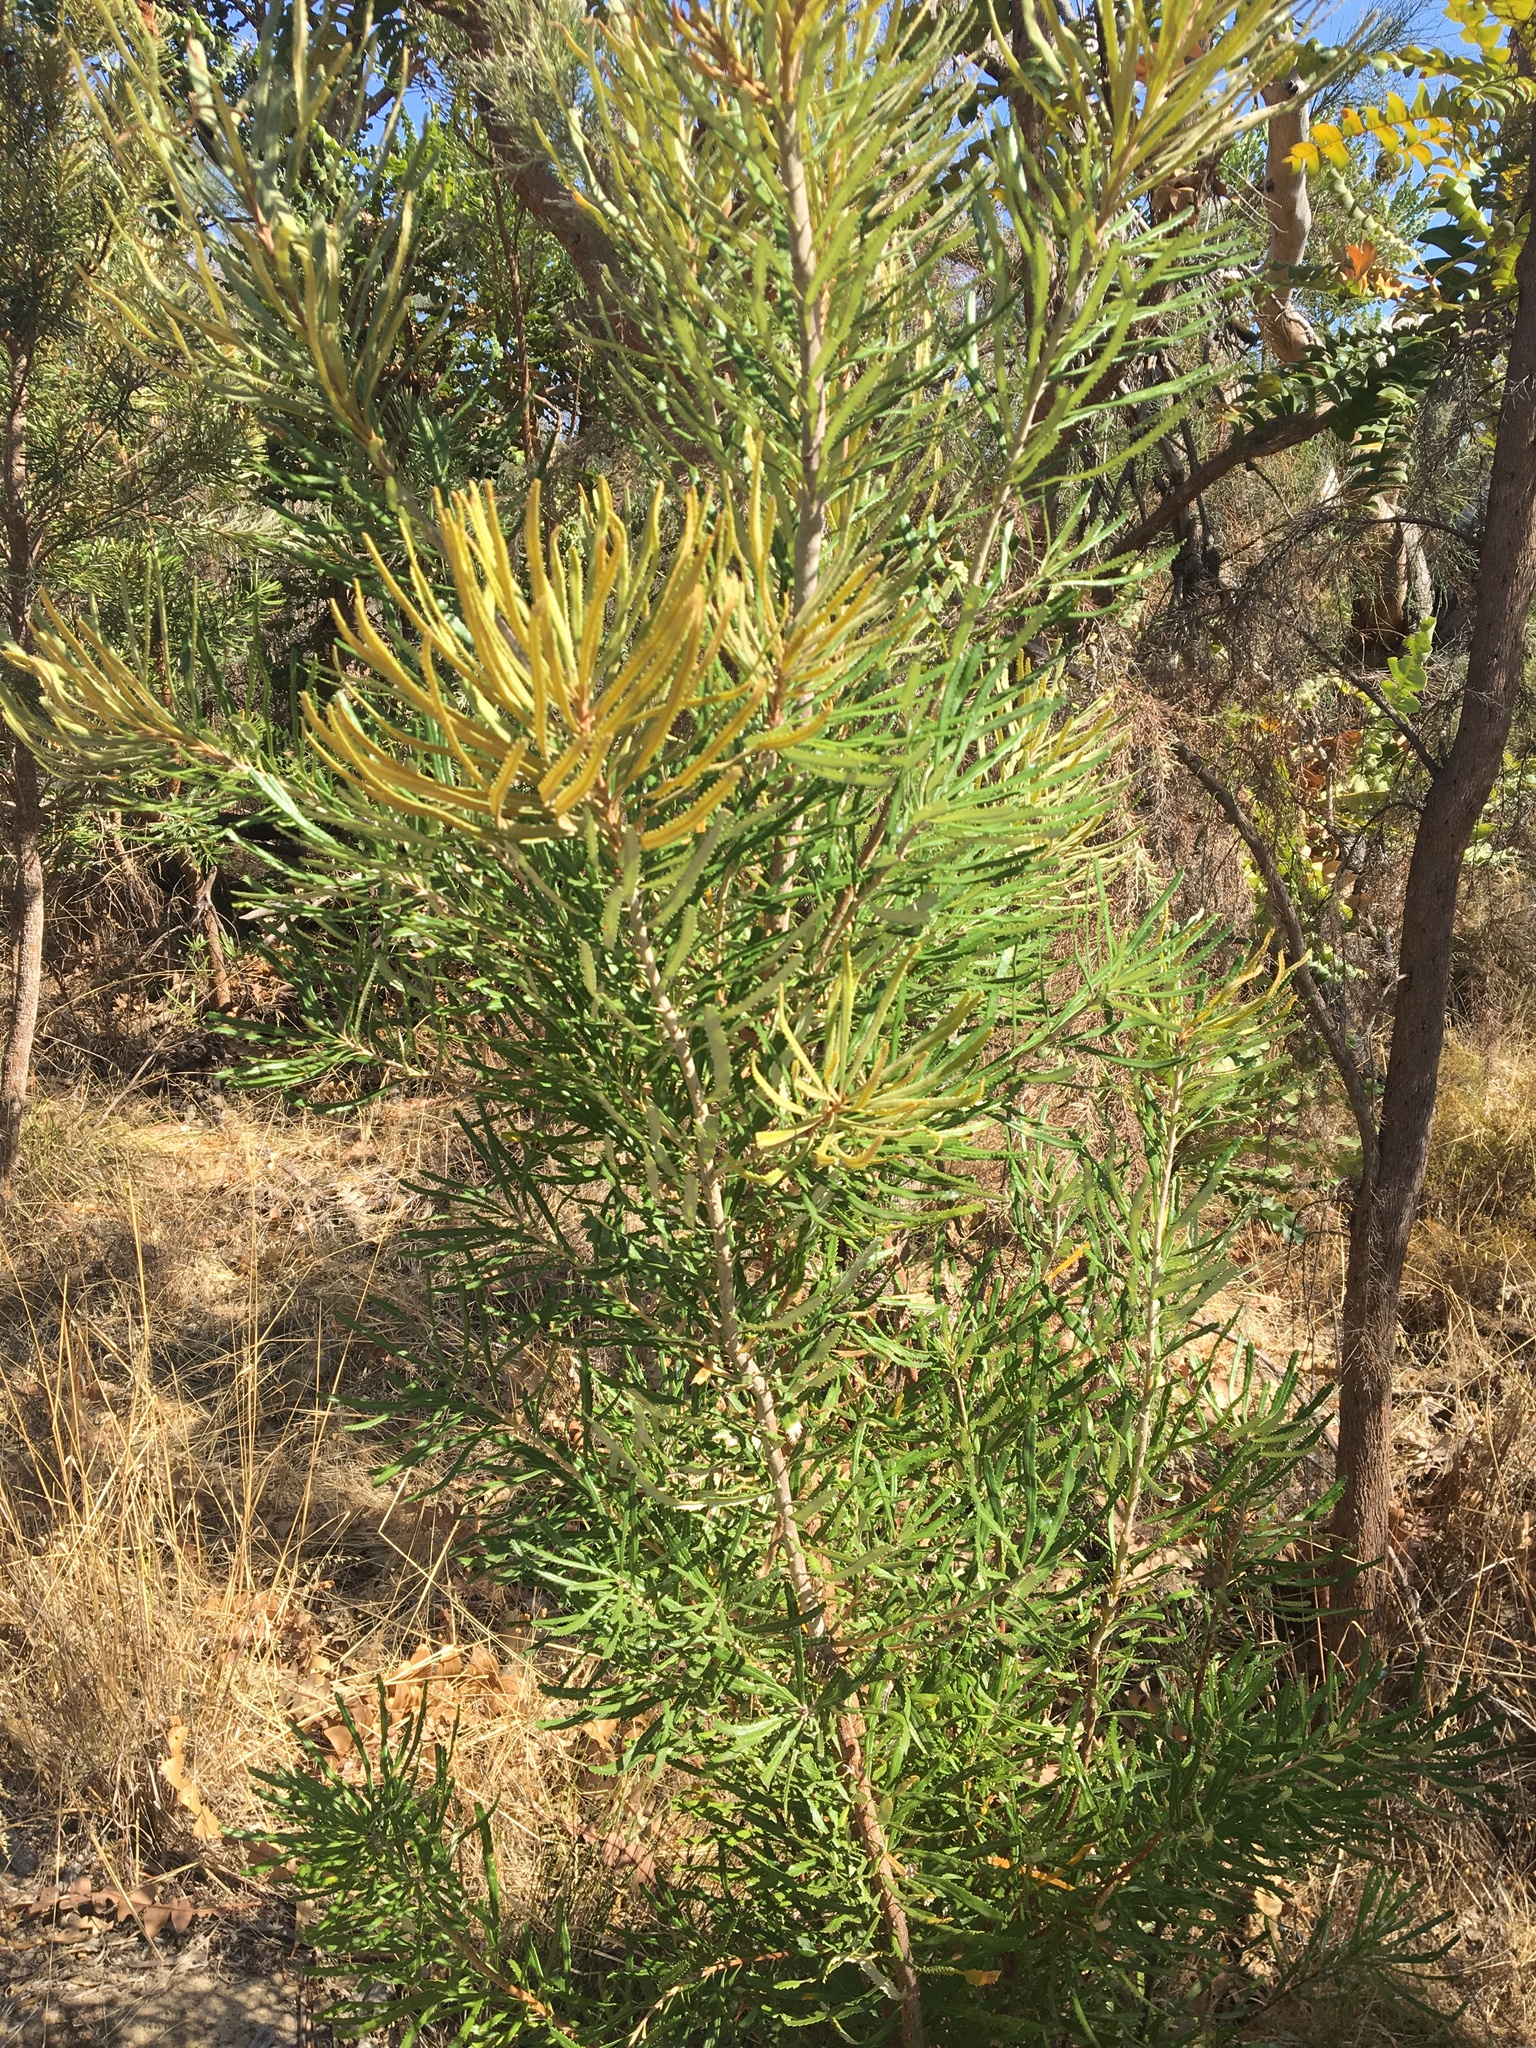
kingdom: Animalia
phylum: Arthropoda
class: Insecta
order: Coleoptera
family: Chrysomelidae
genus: Paropsisterna
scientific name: Paropsisterna
